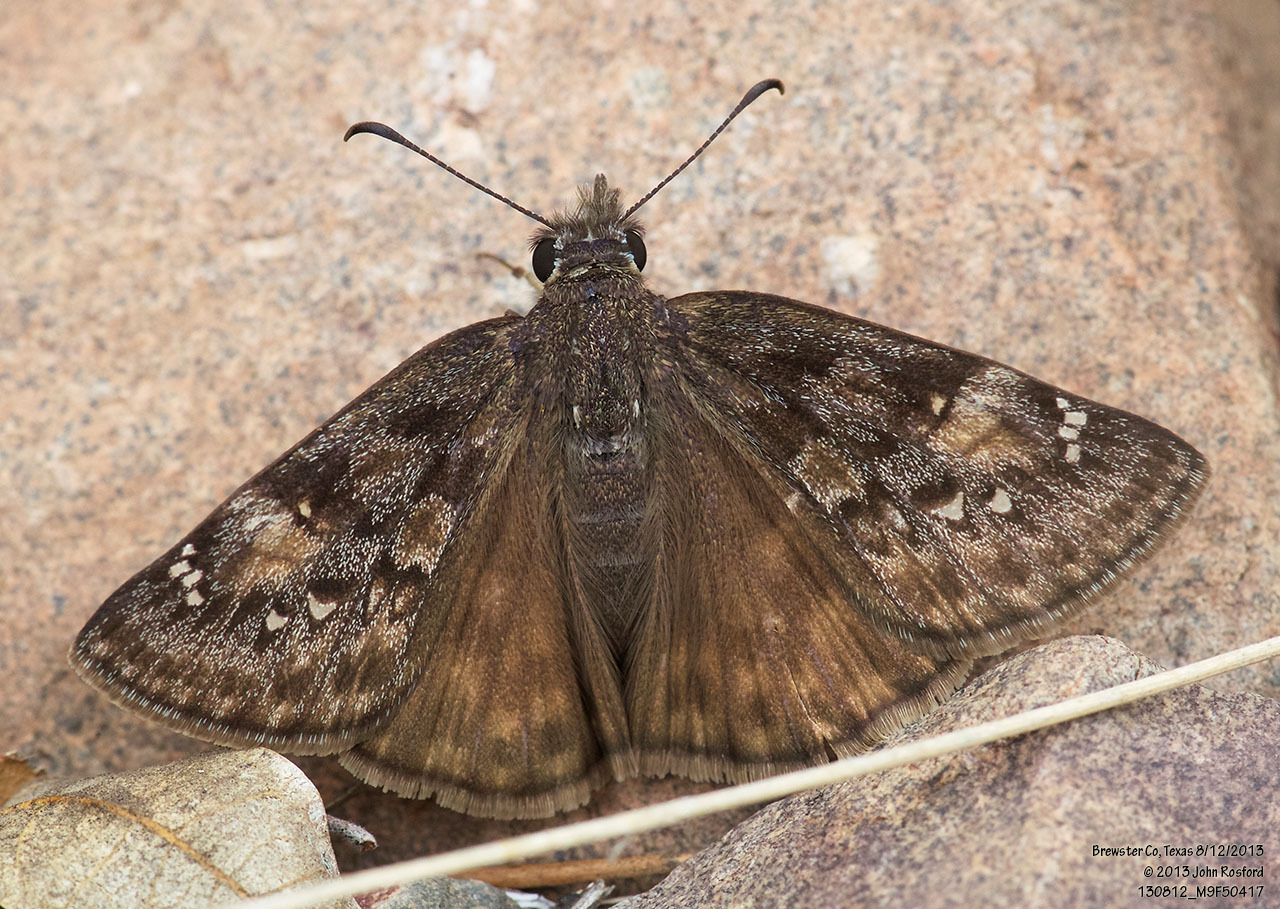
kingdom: Animalia
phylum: Arthropoda
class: Insecta
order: Lepidoptera
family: Hesperiidae
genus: Erynnis
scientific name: Erynnis meridianus
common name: Meridian duskywing
